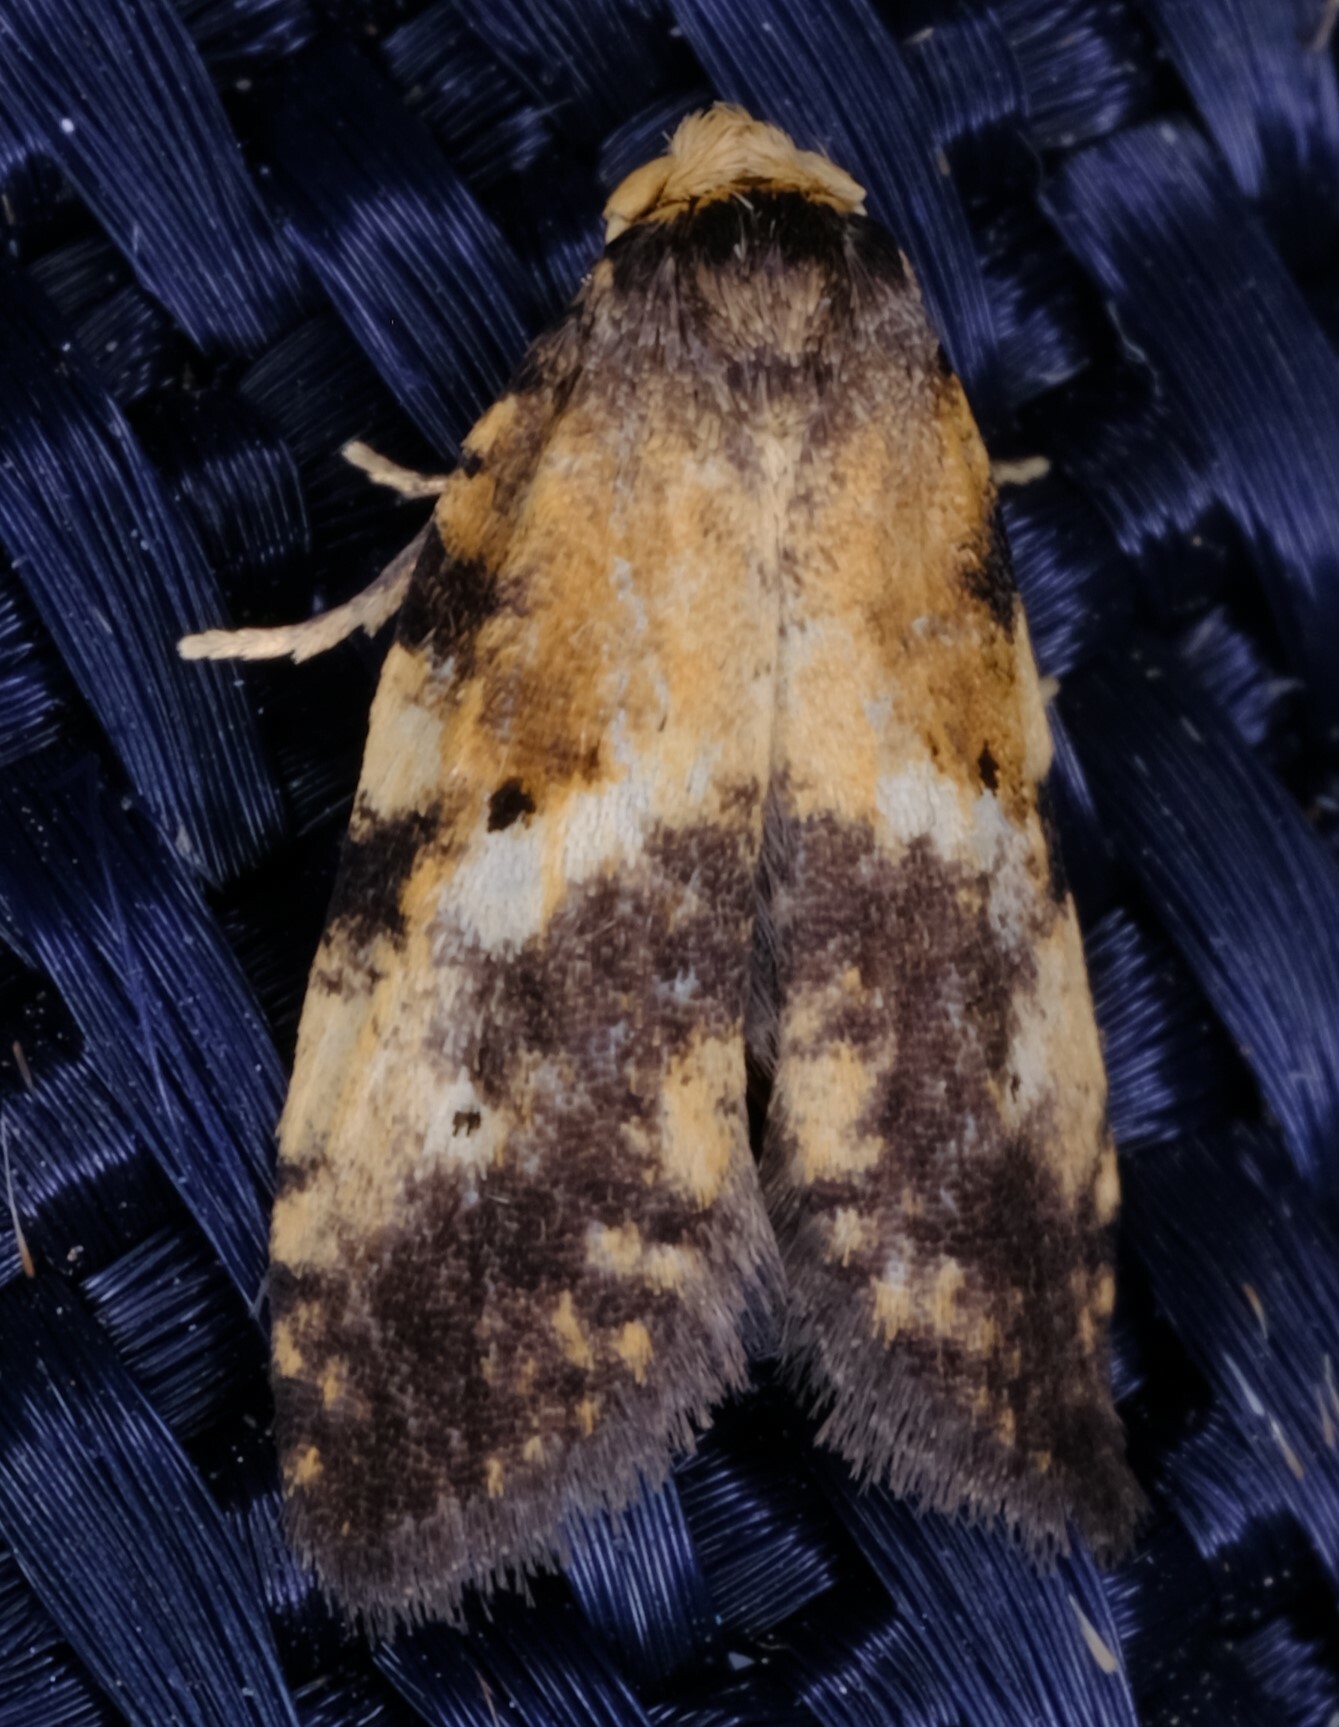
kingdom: Animalia
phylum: Arthropoda
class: Insecta
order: Lepidoptera
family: Galacticidae
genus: Tanaoctena
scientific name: Tanaoctena pygmaeodes
